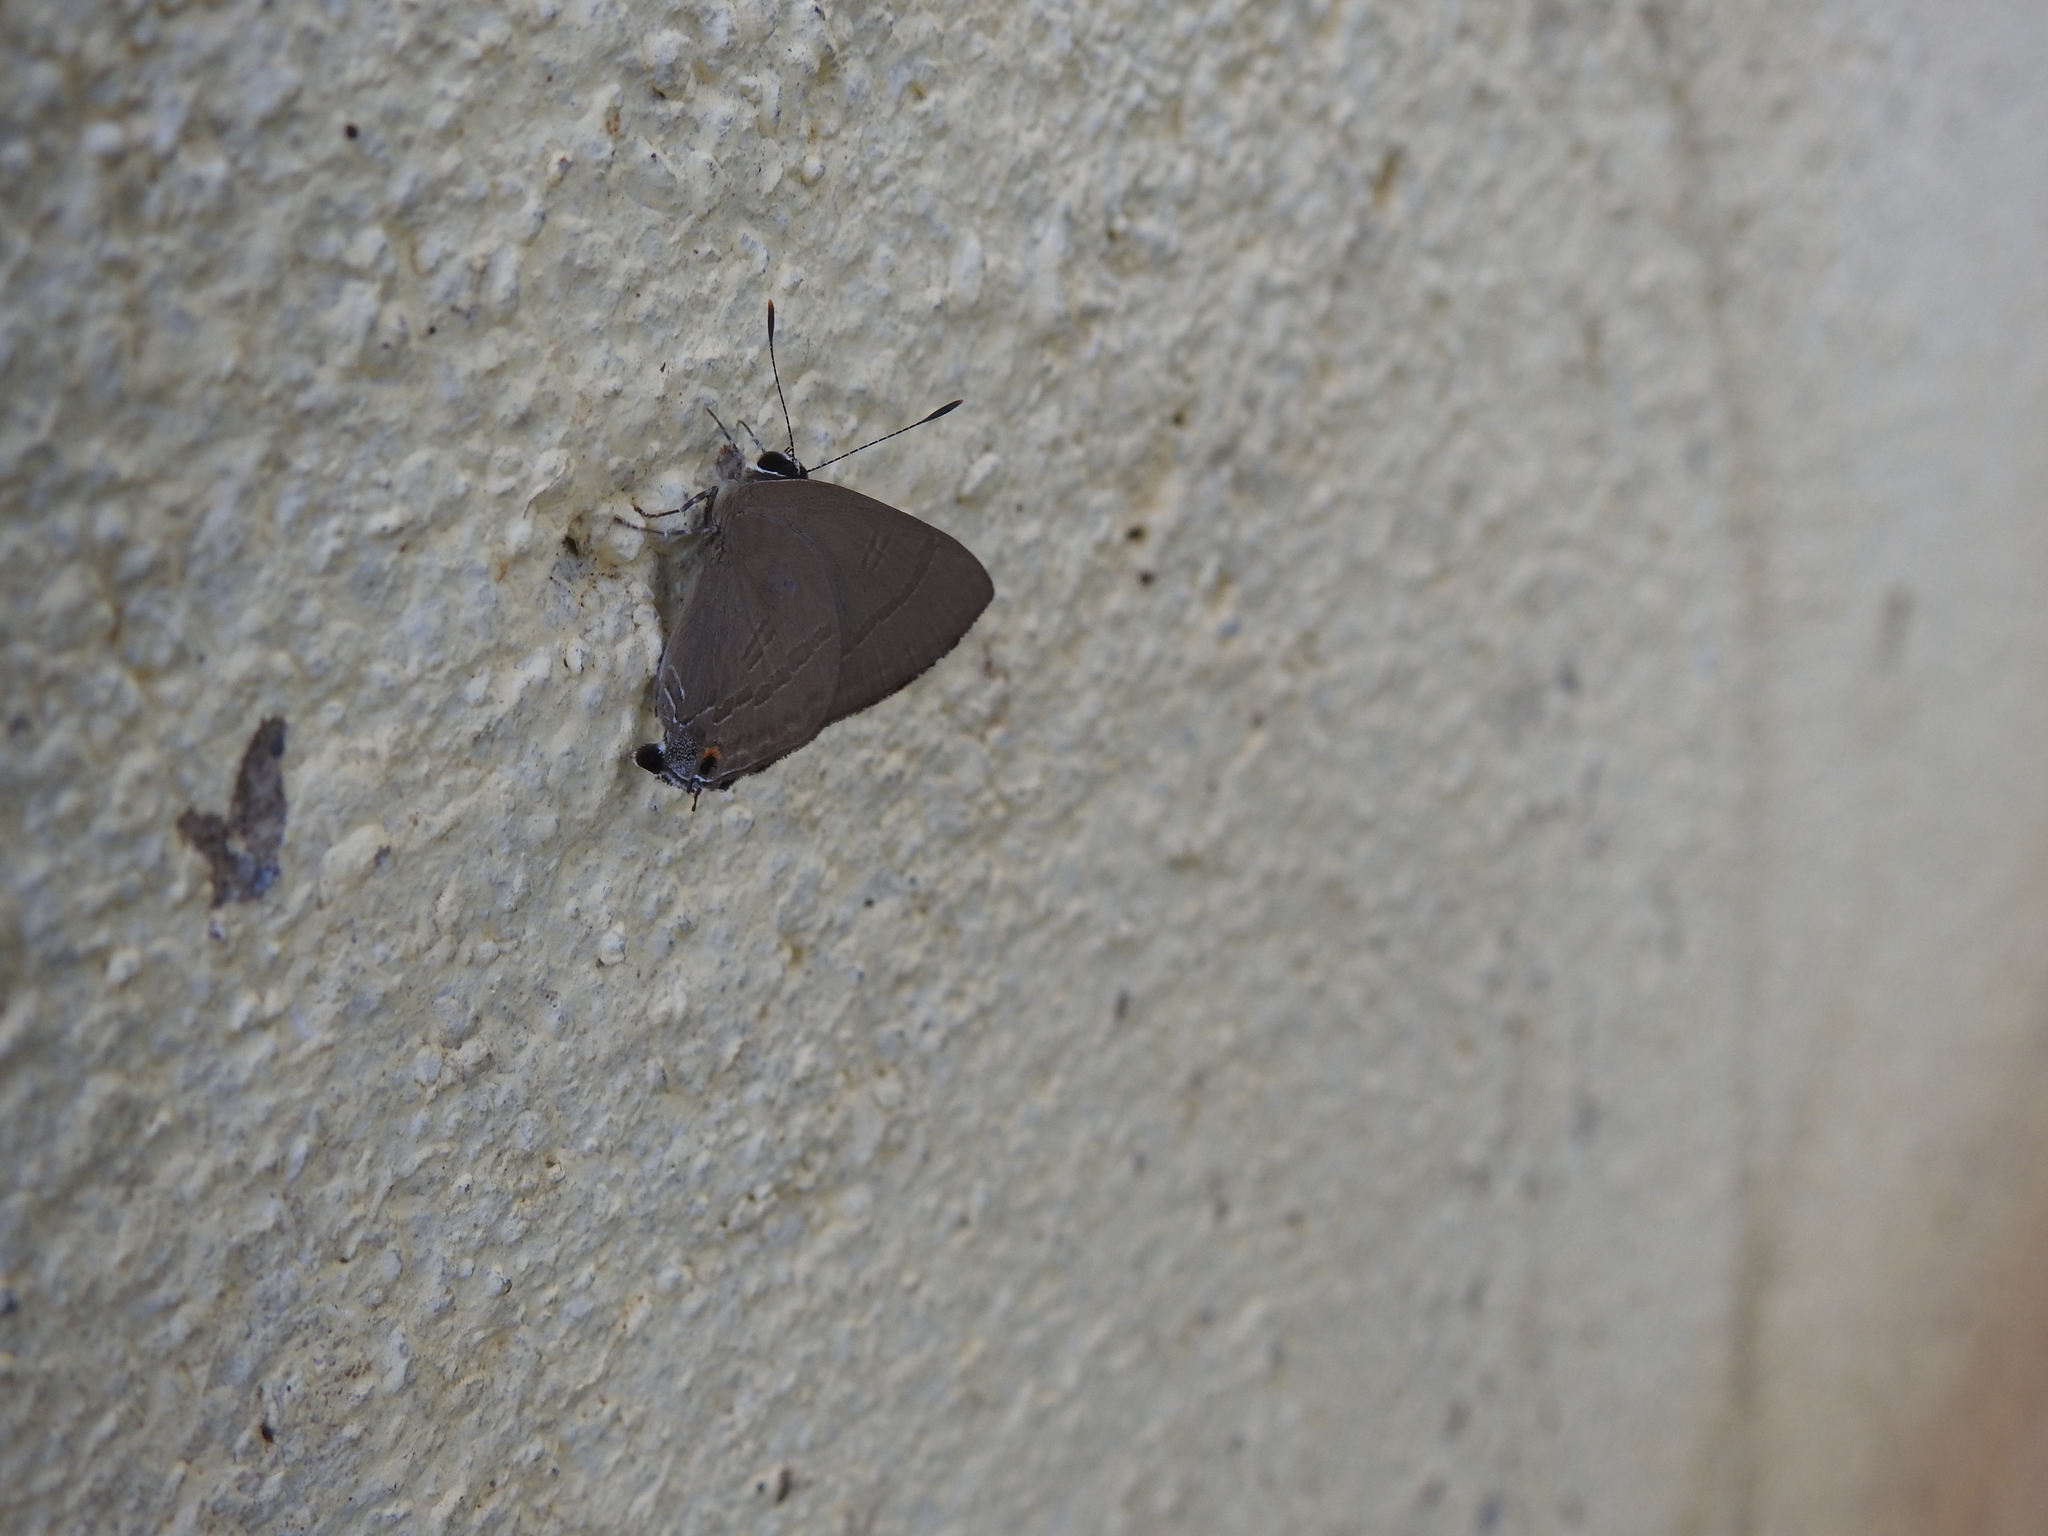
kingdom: Animalia
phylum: Arthropoda
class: Insecta
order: Lepidoptera
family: Lycaenidae
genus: Rapala
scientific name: Rapala manea
